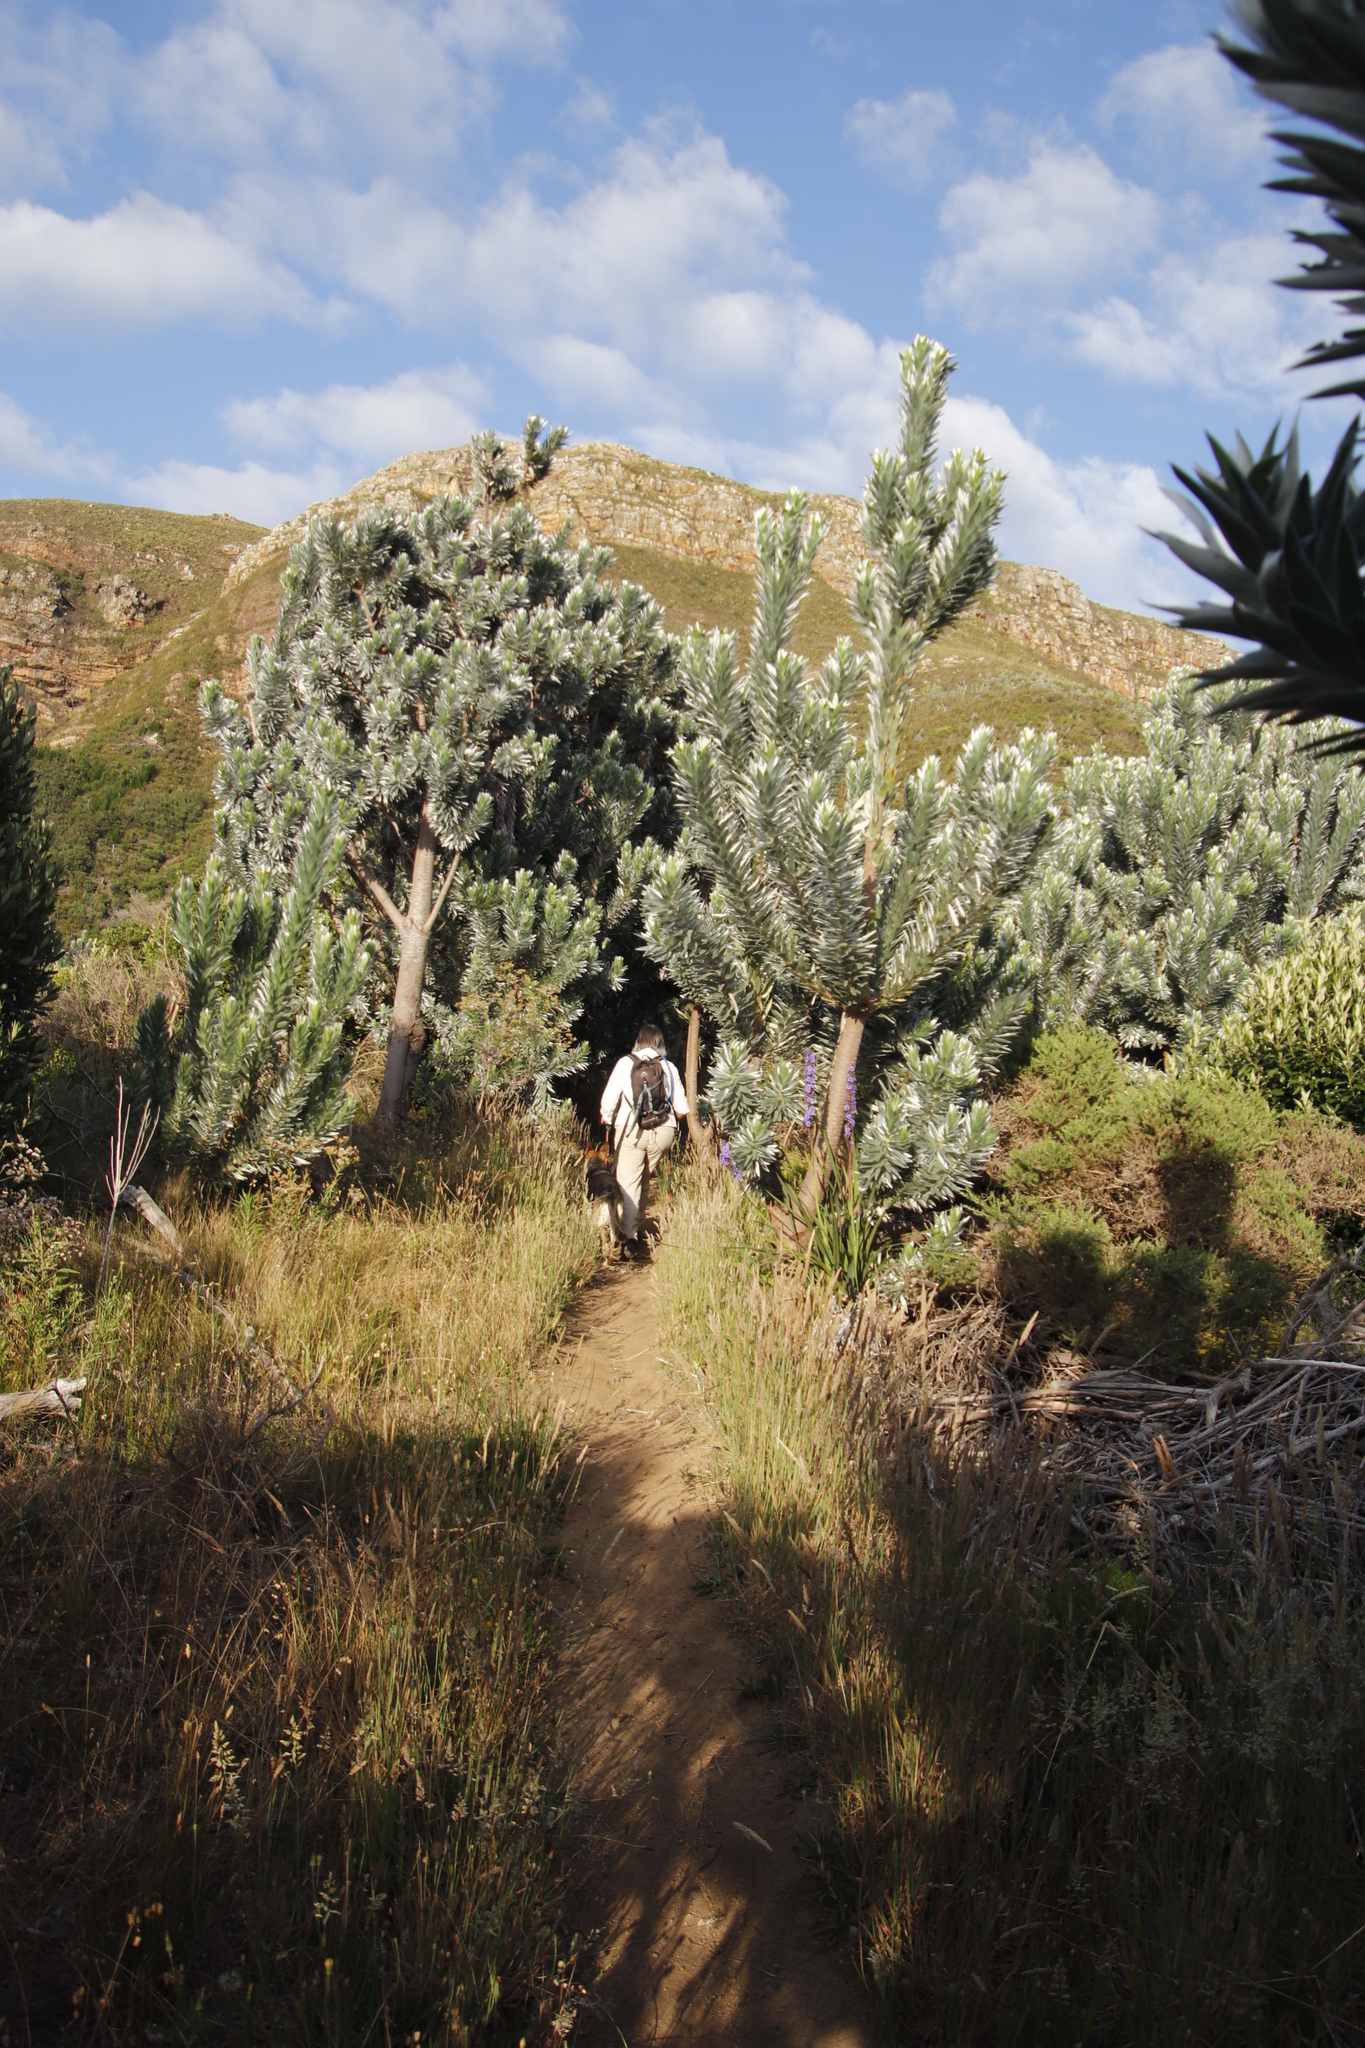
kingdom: Plantae
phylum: Tracheophyta
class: Magnoliopsida
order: Proteales
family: Proteaceae
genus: Leucadendron
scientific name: Leucadendron argenteum
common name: Cape silver tree
